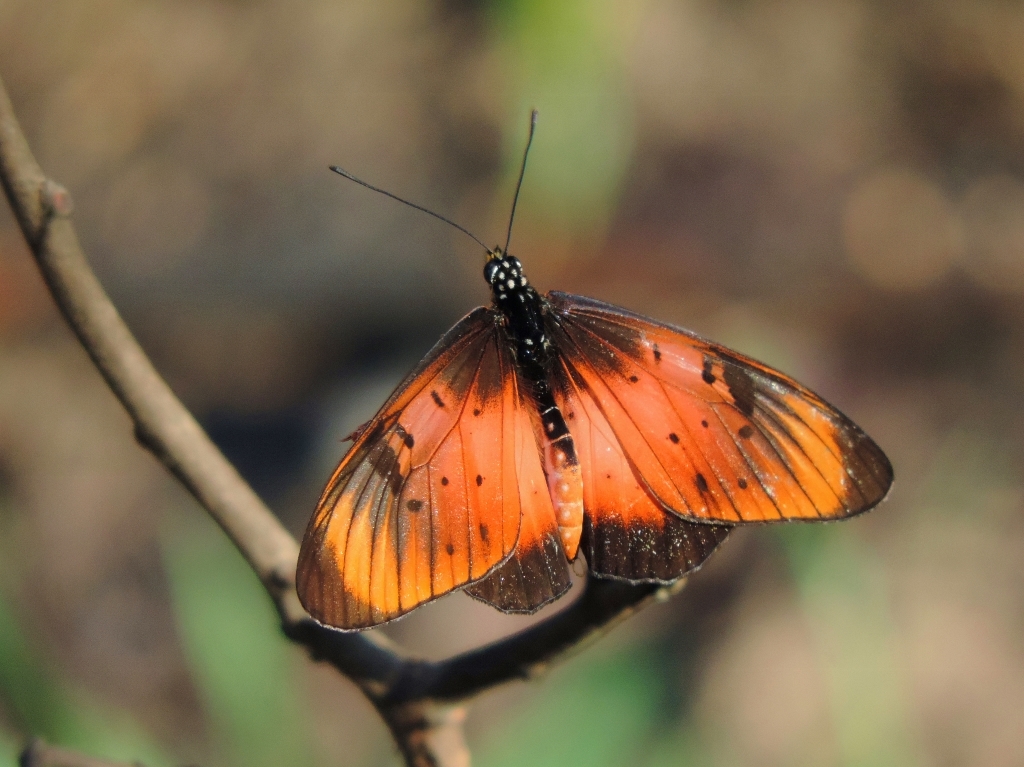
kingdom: Animalia
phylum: Arthropoda
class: Insecta
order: Lepidoptera
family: Nymphalidae
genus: Stephenia
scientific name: Stephenia
